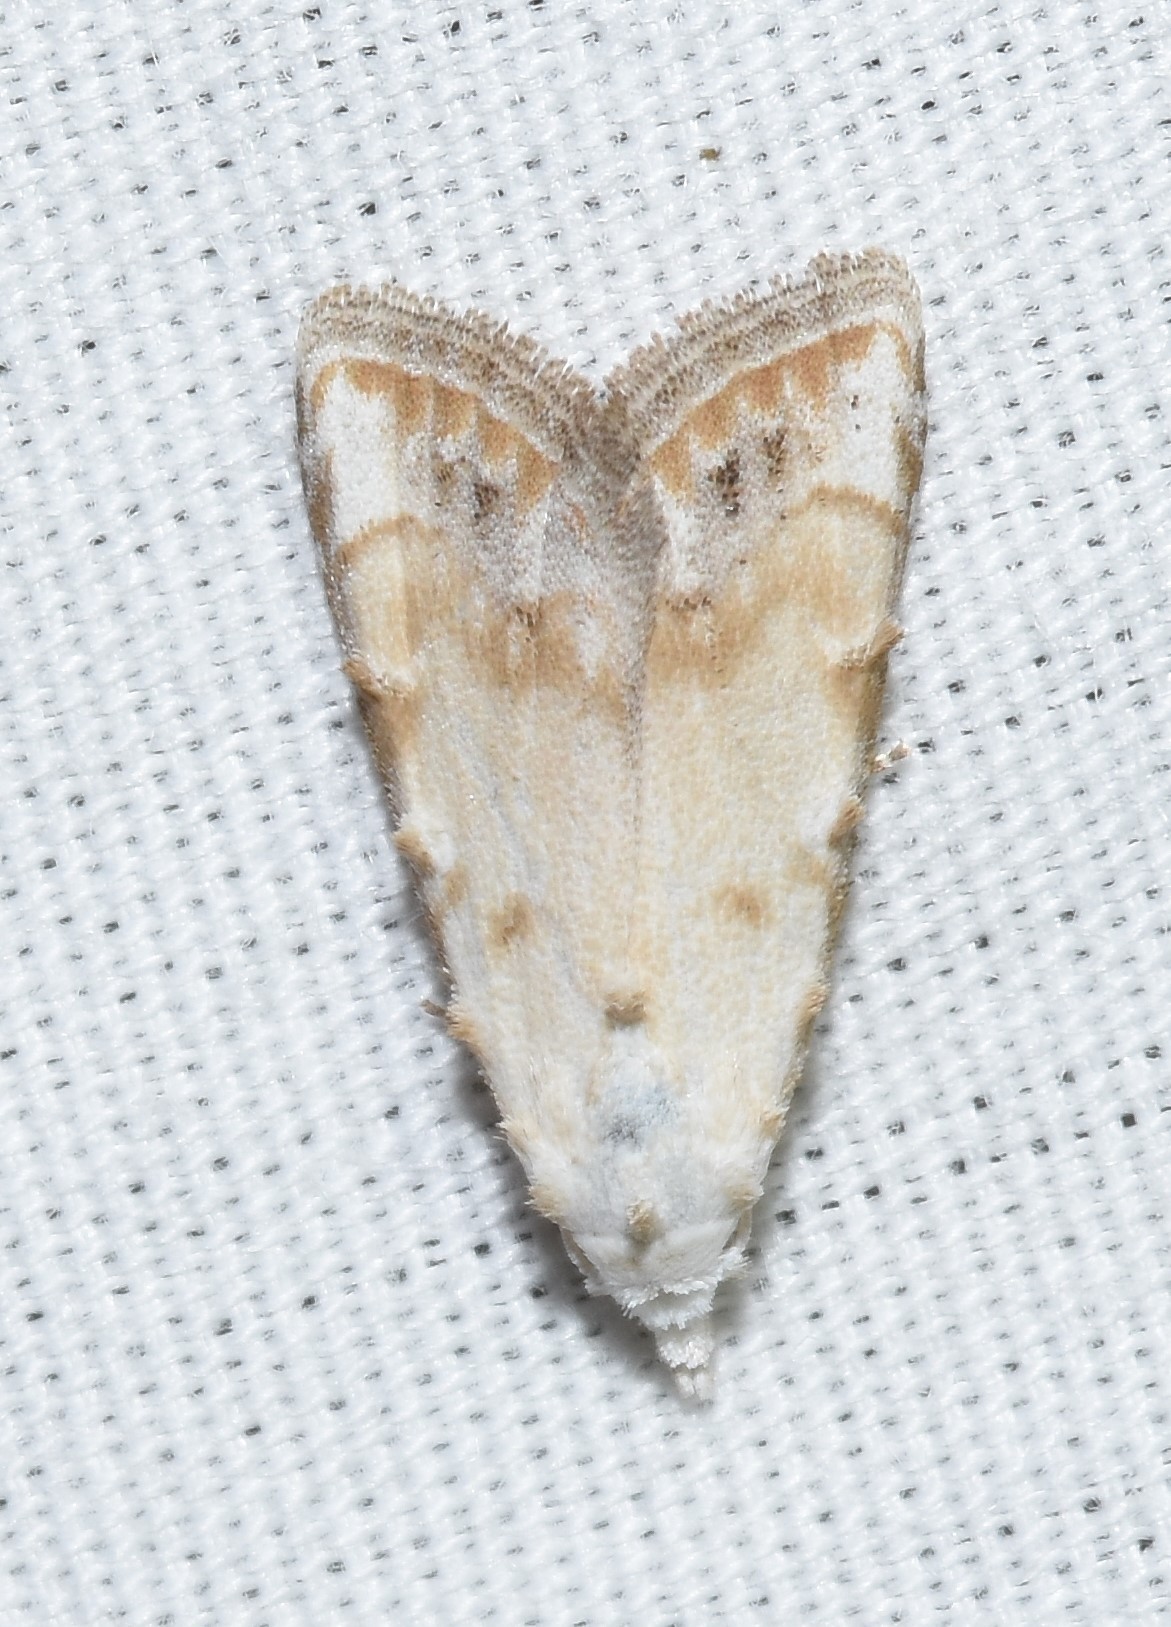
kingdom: Animalia
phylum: Arthropoda
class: Insecta
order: Lepidoptera
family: Nolidae
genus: Nola
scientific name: Nola cereella
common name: Sorghum webworm moth
